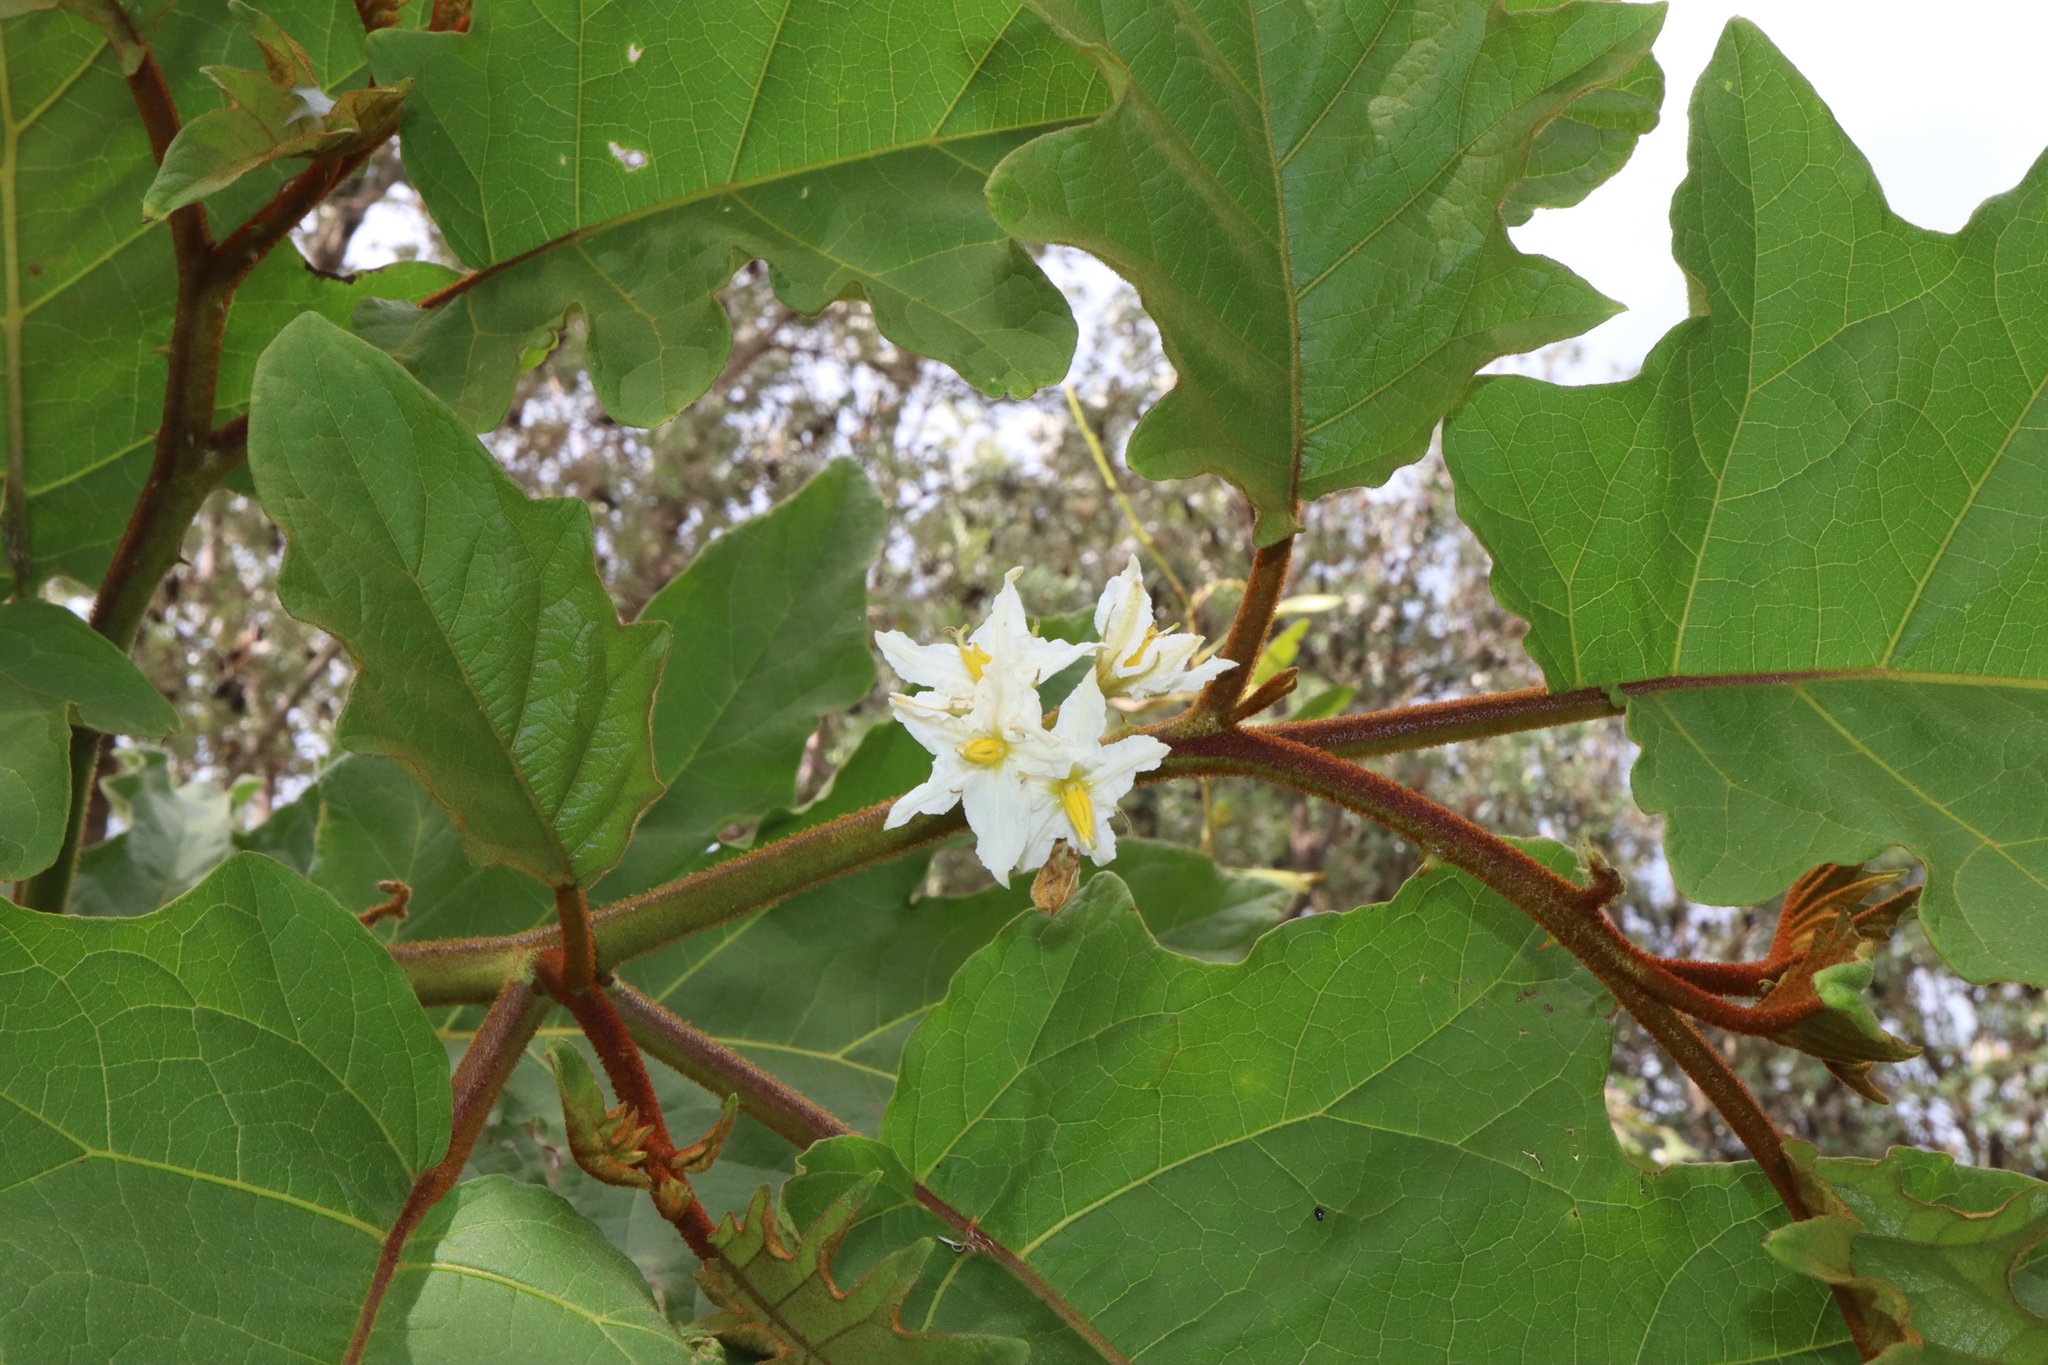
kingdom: Plantae
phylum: Tracheophyta
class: Magnoliopsida
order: Solanales
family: Solanaceae
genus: Solanum
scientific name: Solanum chrysotrichum
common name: Nightshade
